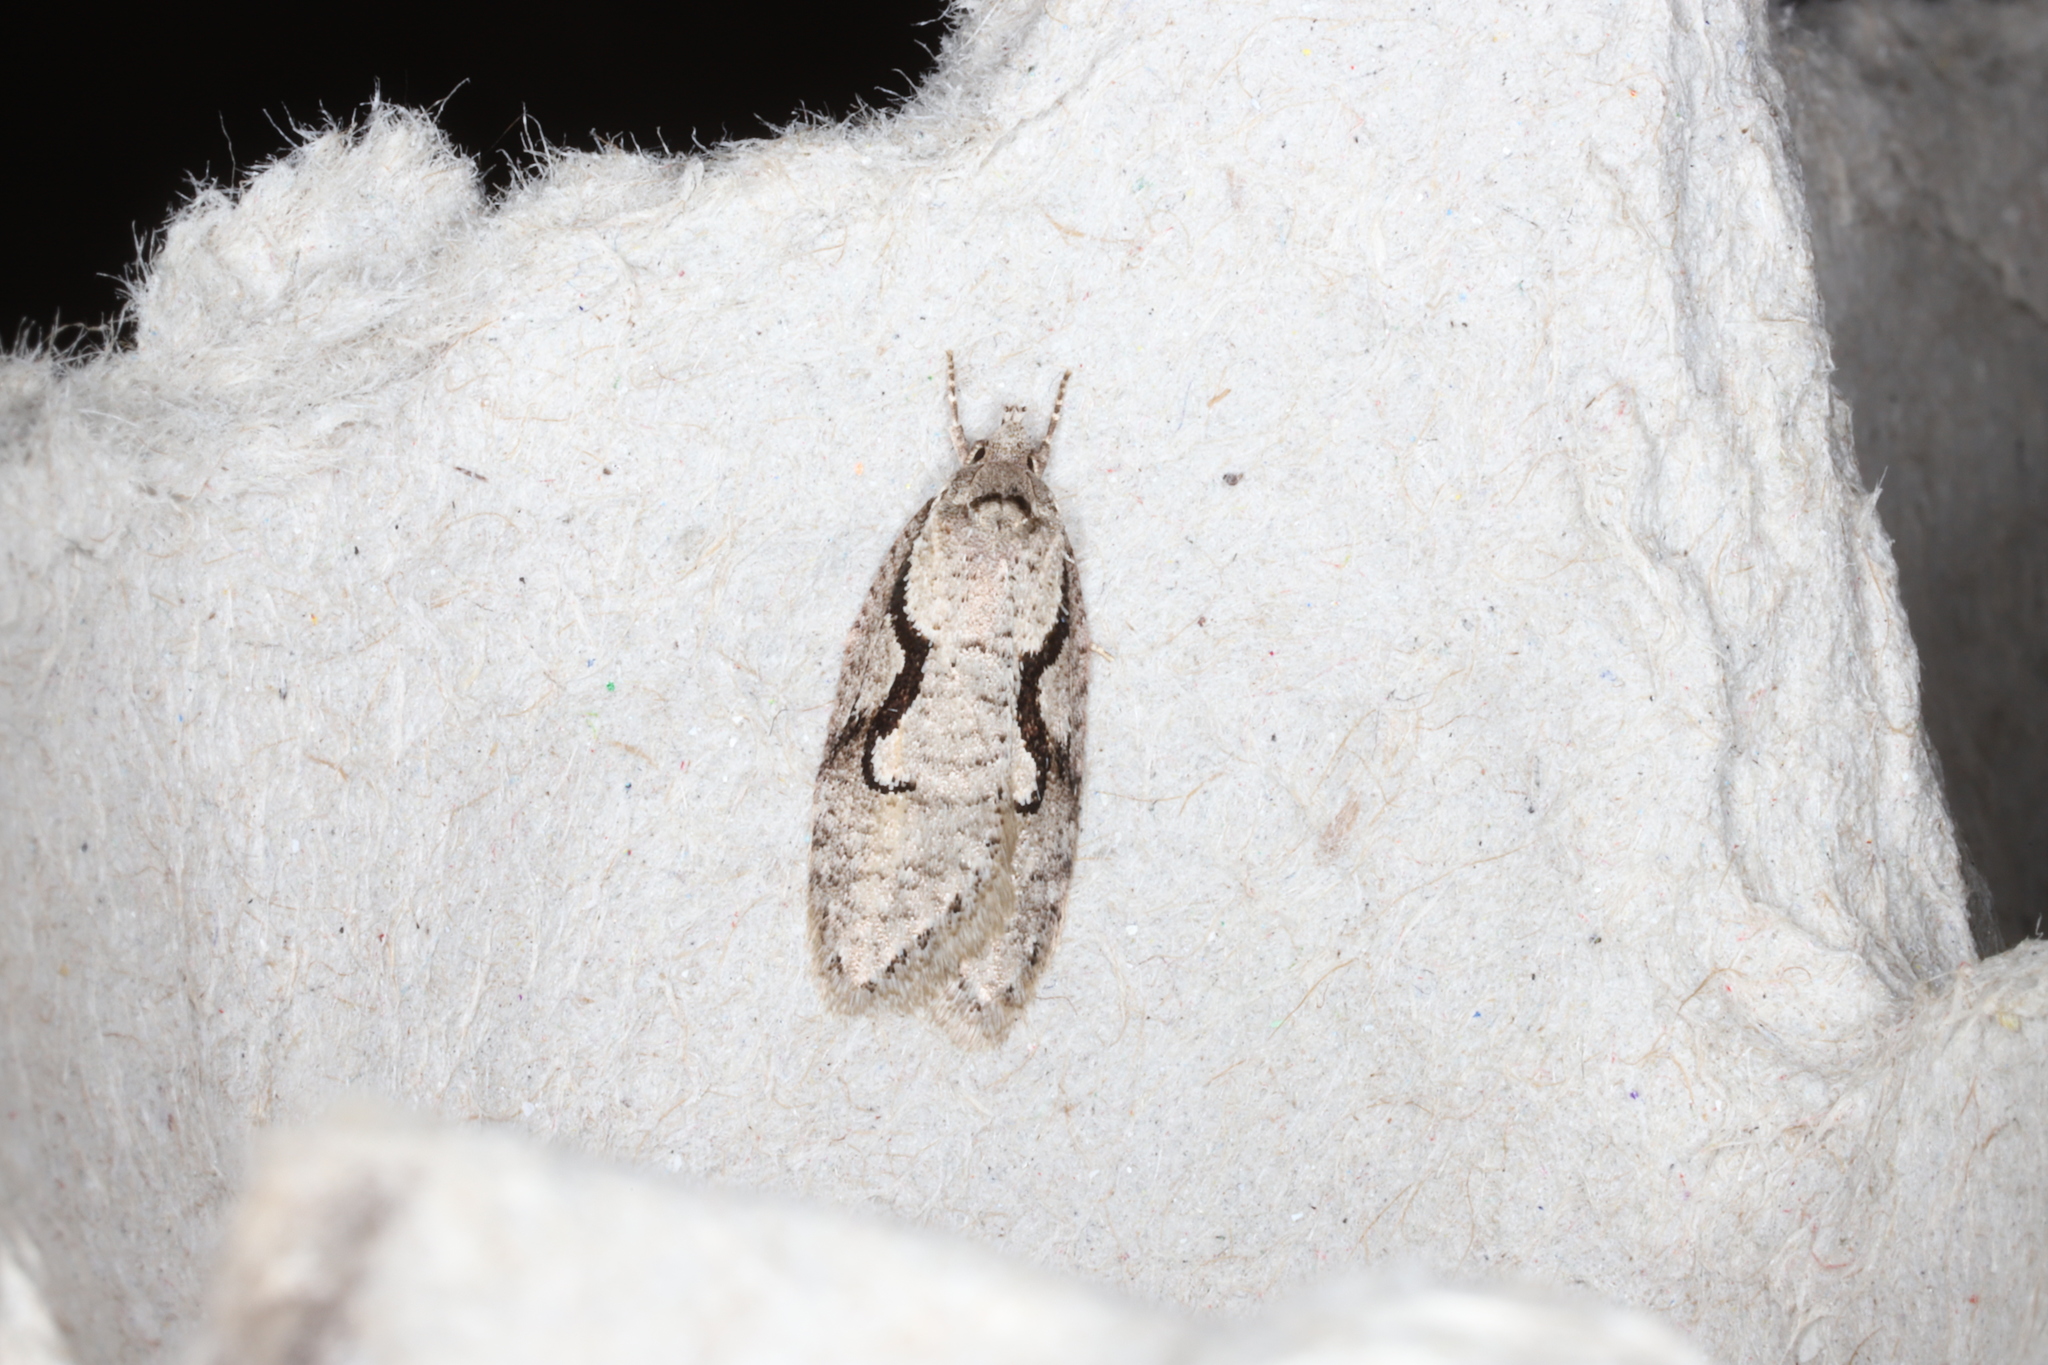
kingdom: Animalia
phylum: Arthropoda
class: Insecta
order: Lepidoptera
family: Depressariidae
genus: Semioscopis
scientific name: Semioscopis packardella
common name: Packard's concealer moth
